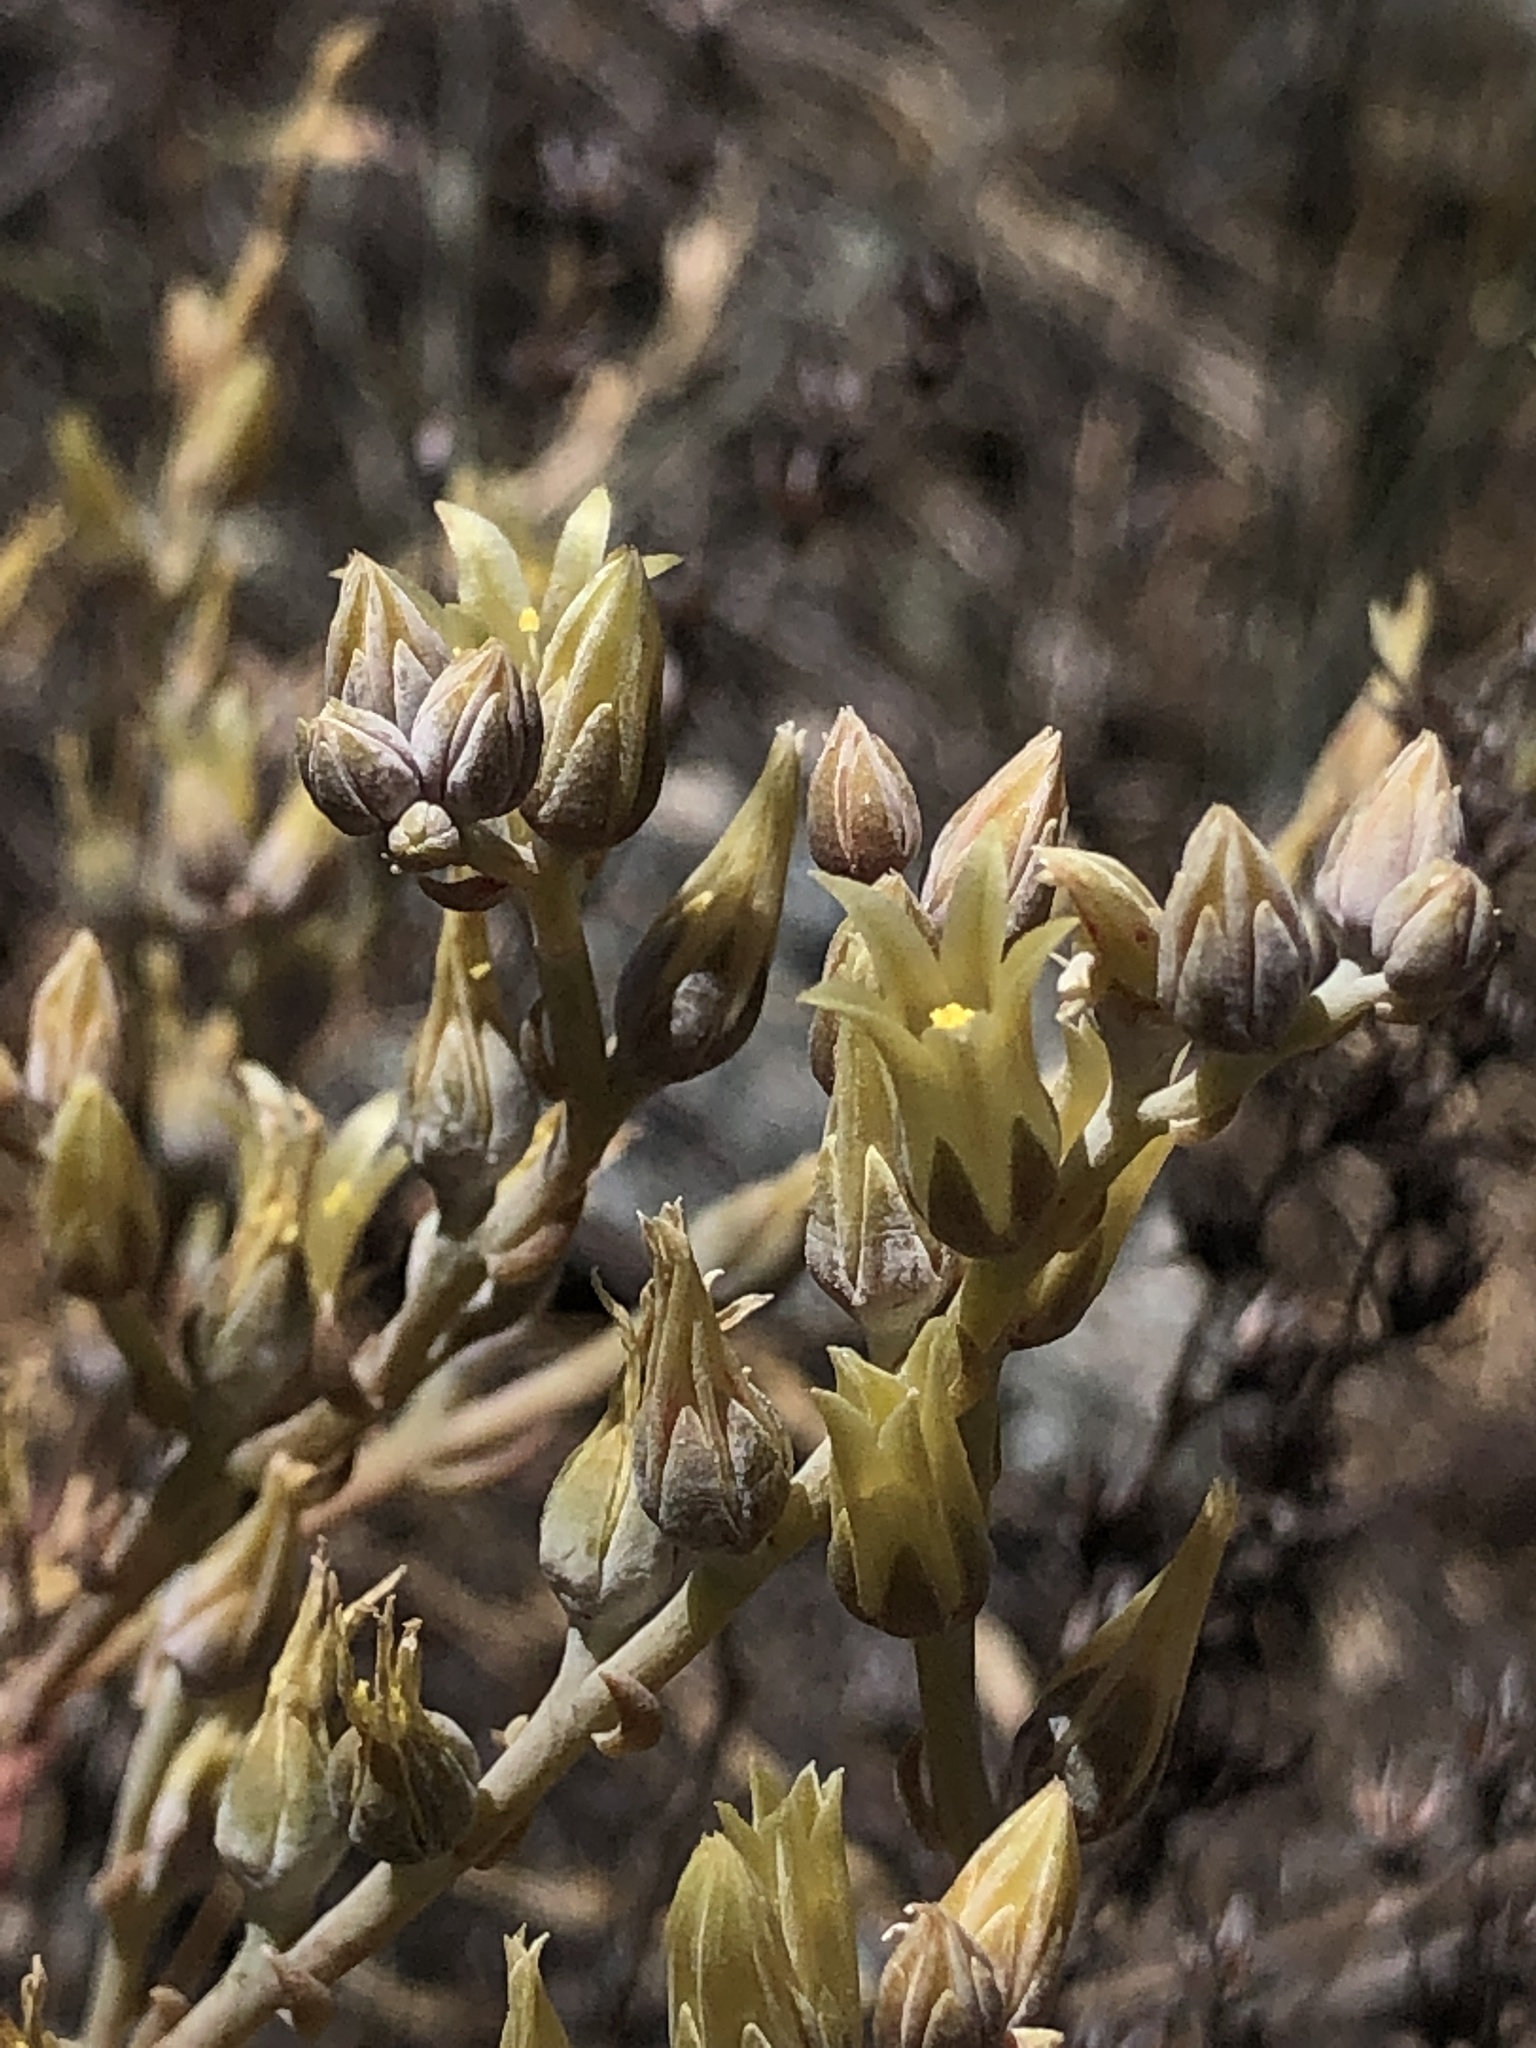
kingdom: Plantae
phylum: Tracheophyta
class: Magnoliopsida
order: Saxifragales
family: Crassulaceae
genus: Dudleya
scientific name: Dudleya abramsii
